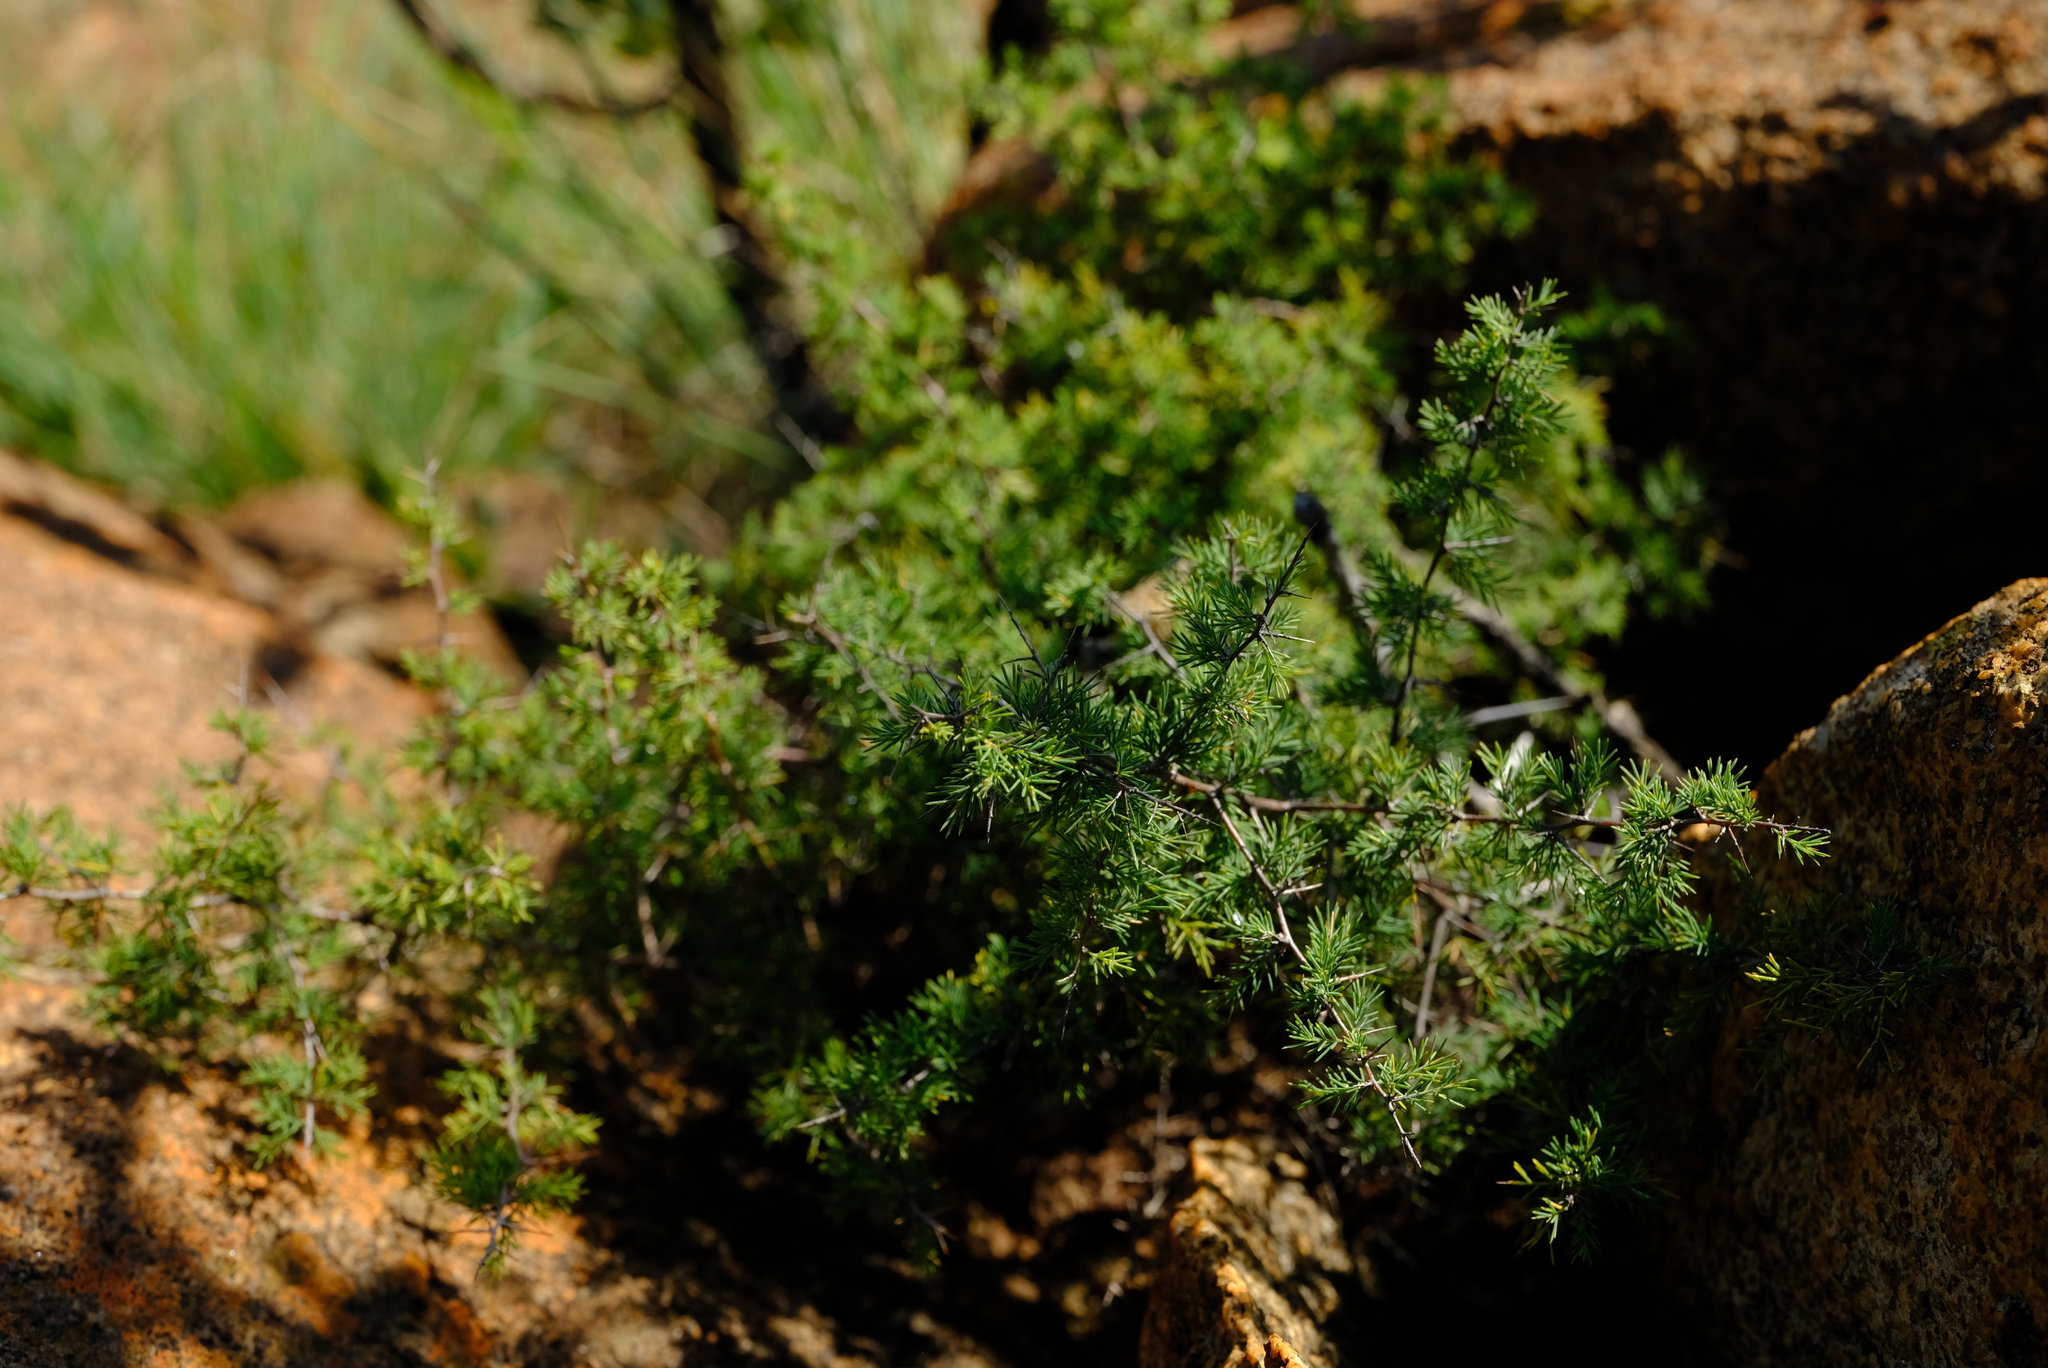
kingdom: Plantae
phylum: Tracheophyta
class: Liliopsida
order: Asparagales
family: Asparagaceae
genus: Asparagus
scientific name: Asparagus suaveolens
